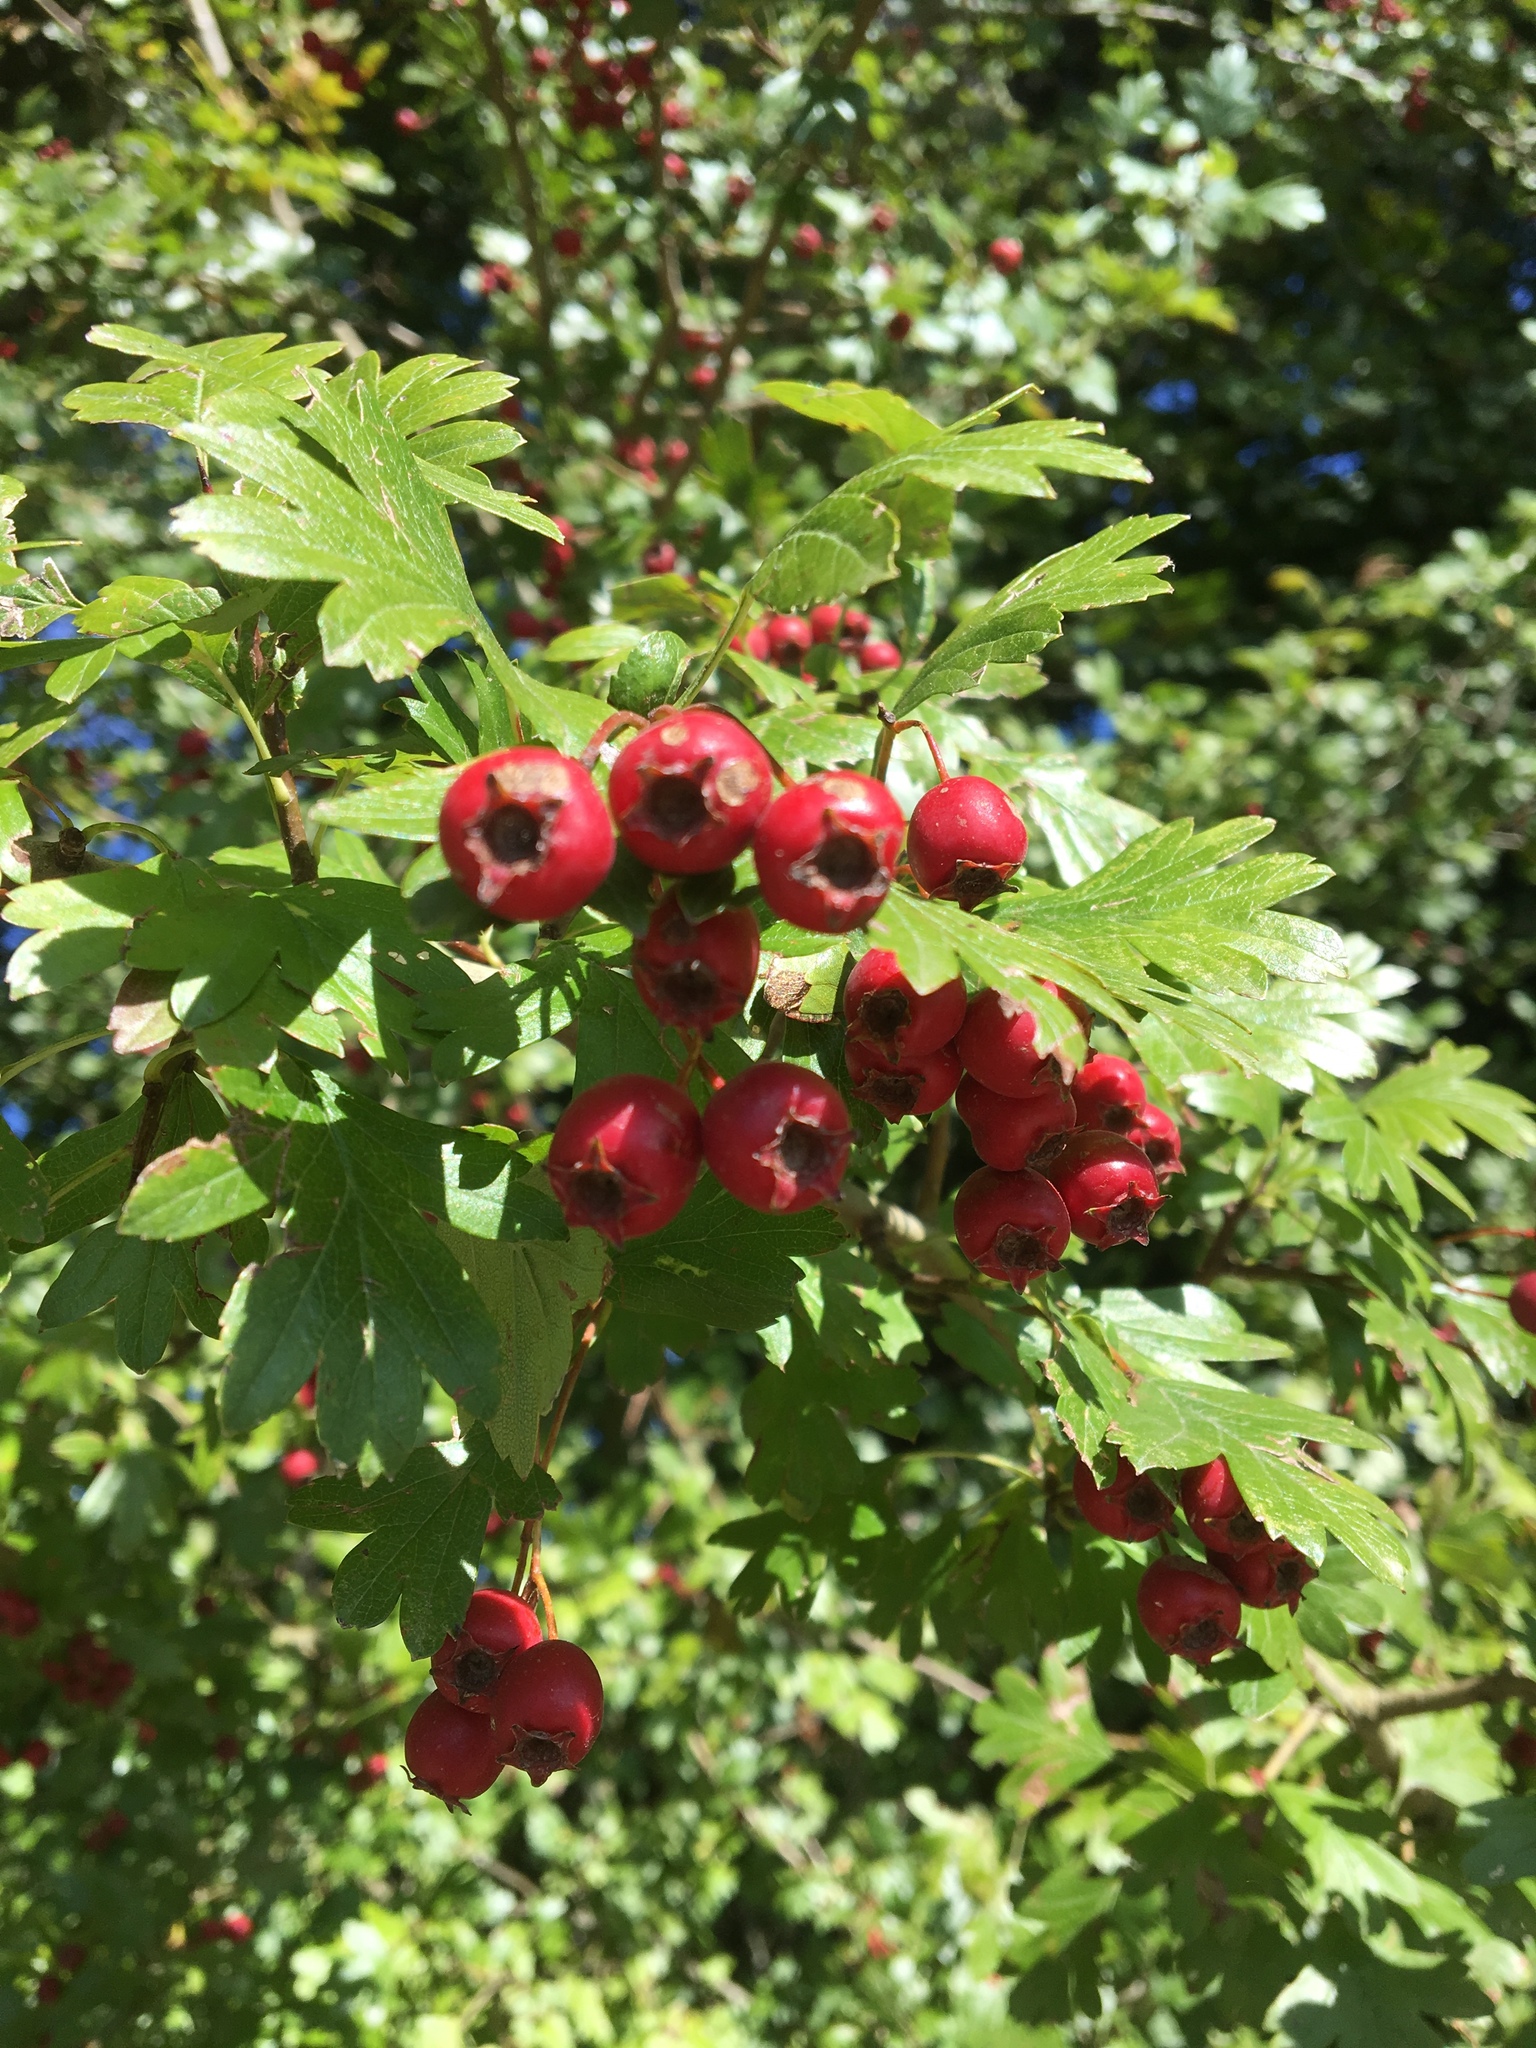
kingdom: Plantae
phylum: Tracheophyta
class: Magnoliopsida
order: Rosales
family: Rosaceae
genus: Crataegus
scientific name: Crataegus monogyna
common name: Hawthorn
